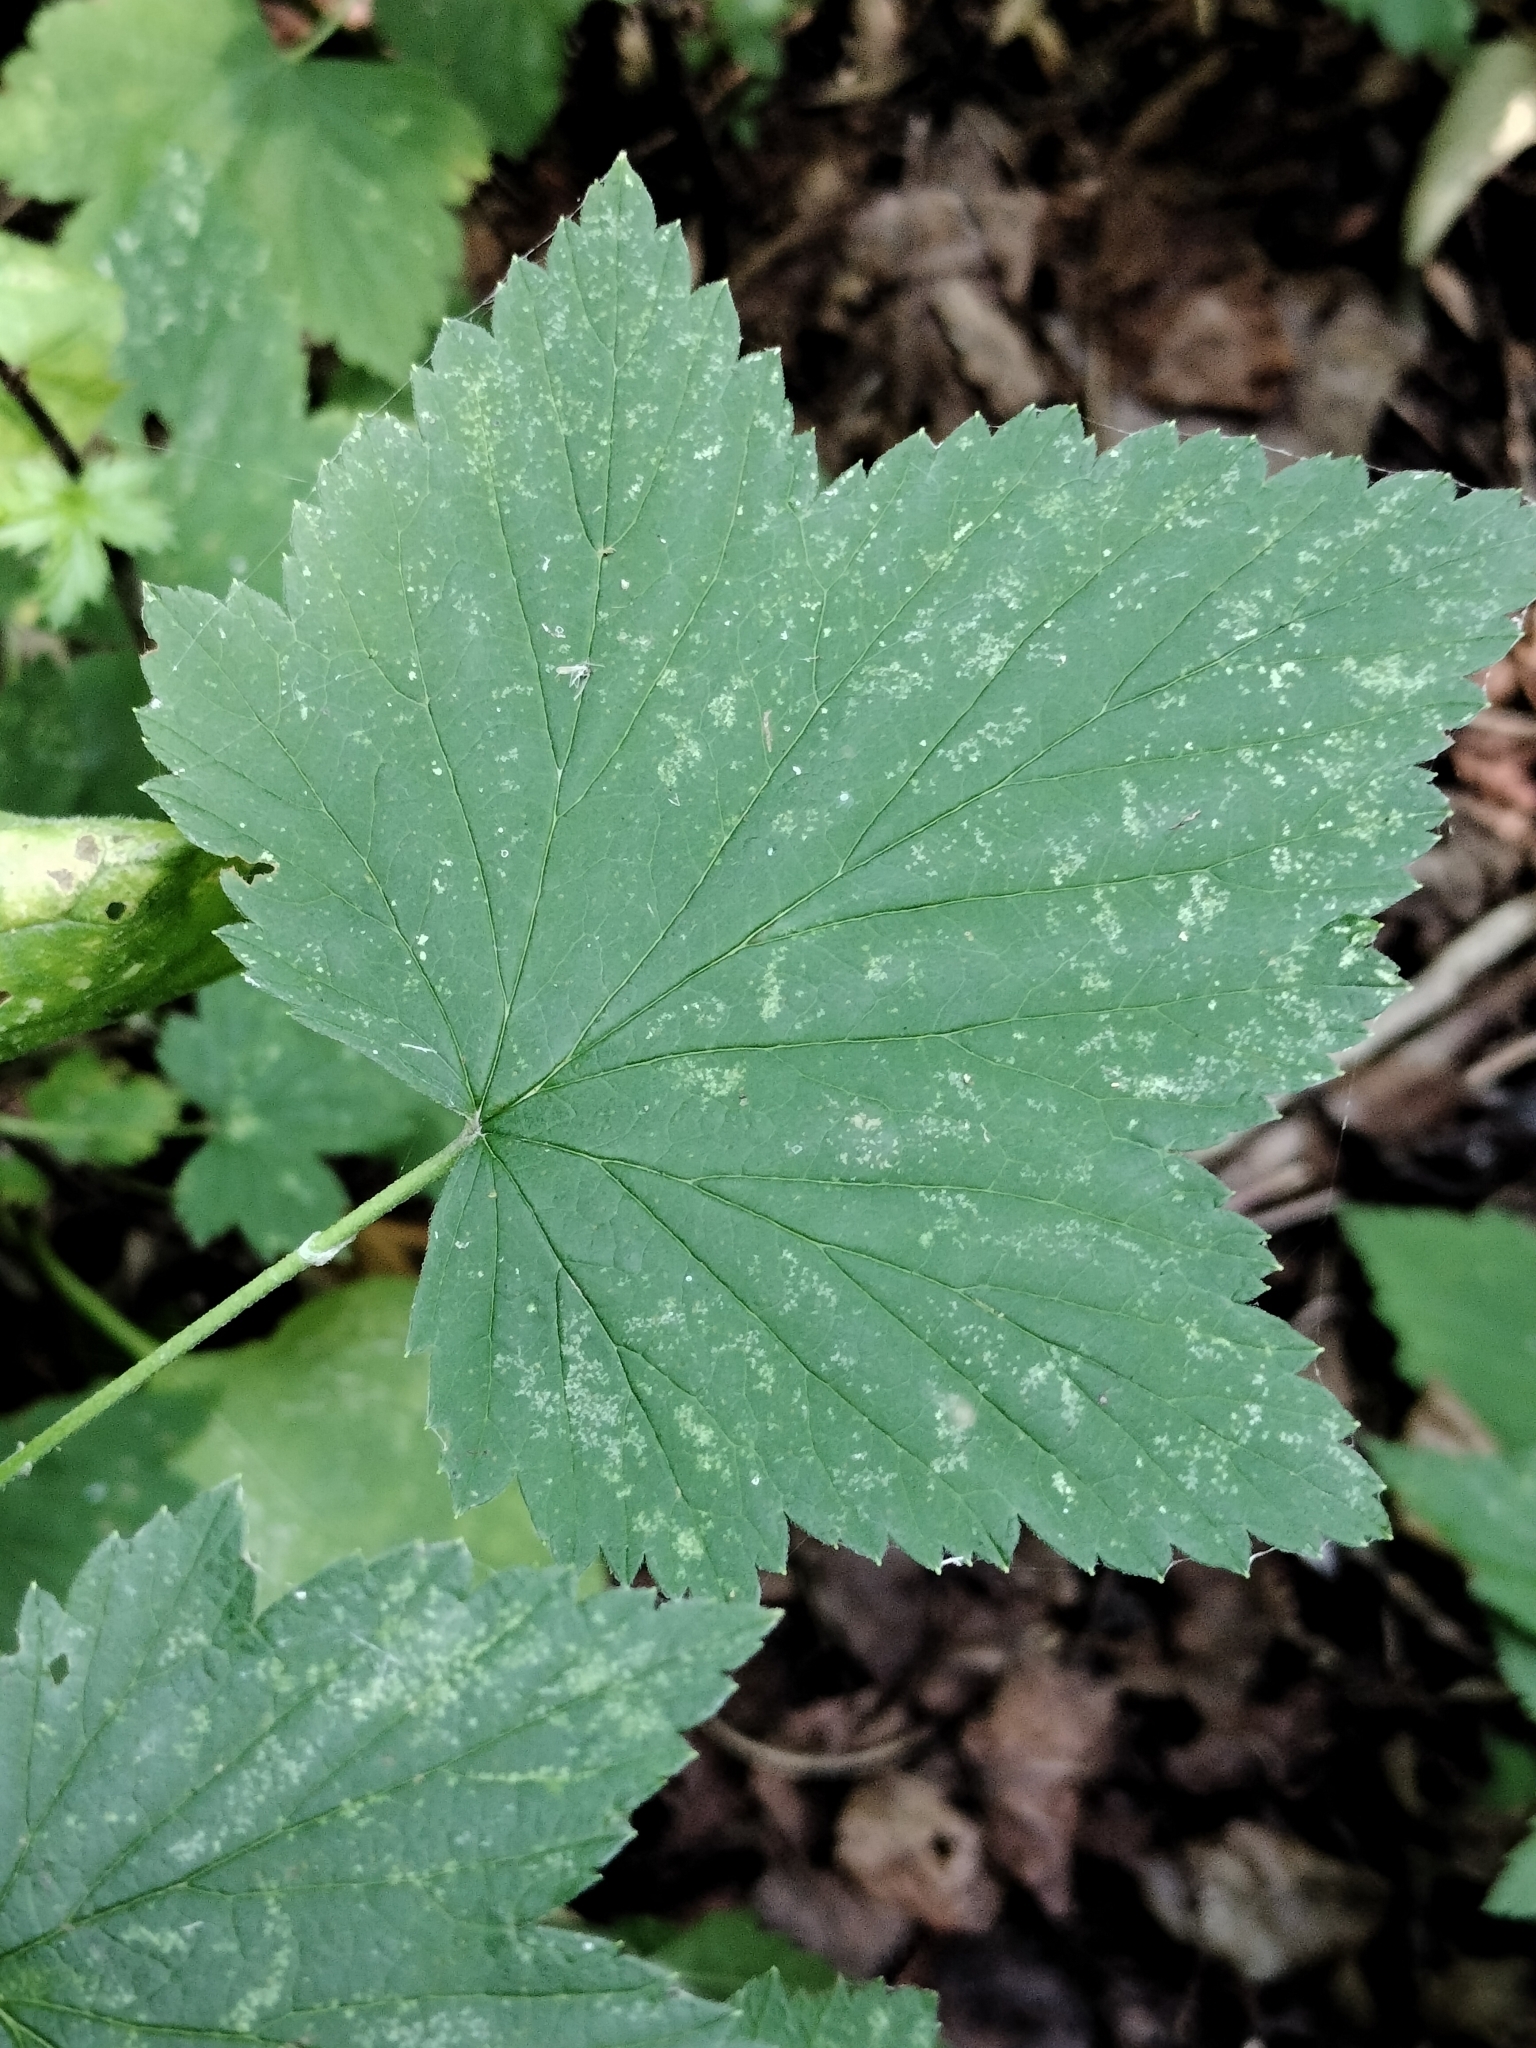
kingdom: Plantae
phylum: Tracheophyta
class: Magnoliopsida
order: Saxifragales
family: Grossulariaceae
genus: Ribes
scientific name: Ribes americanum
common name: American black currant
